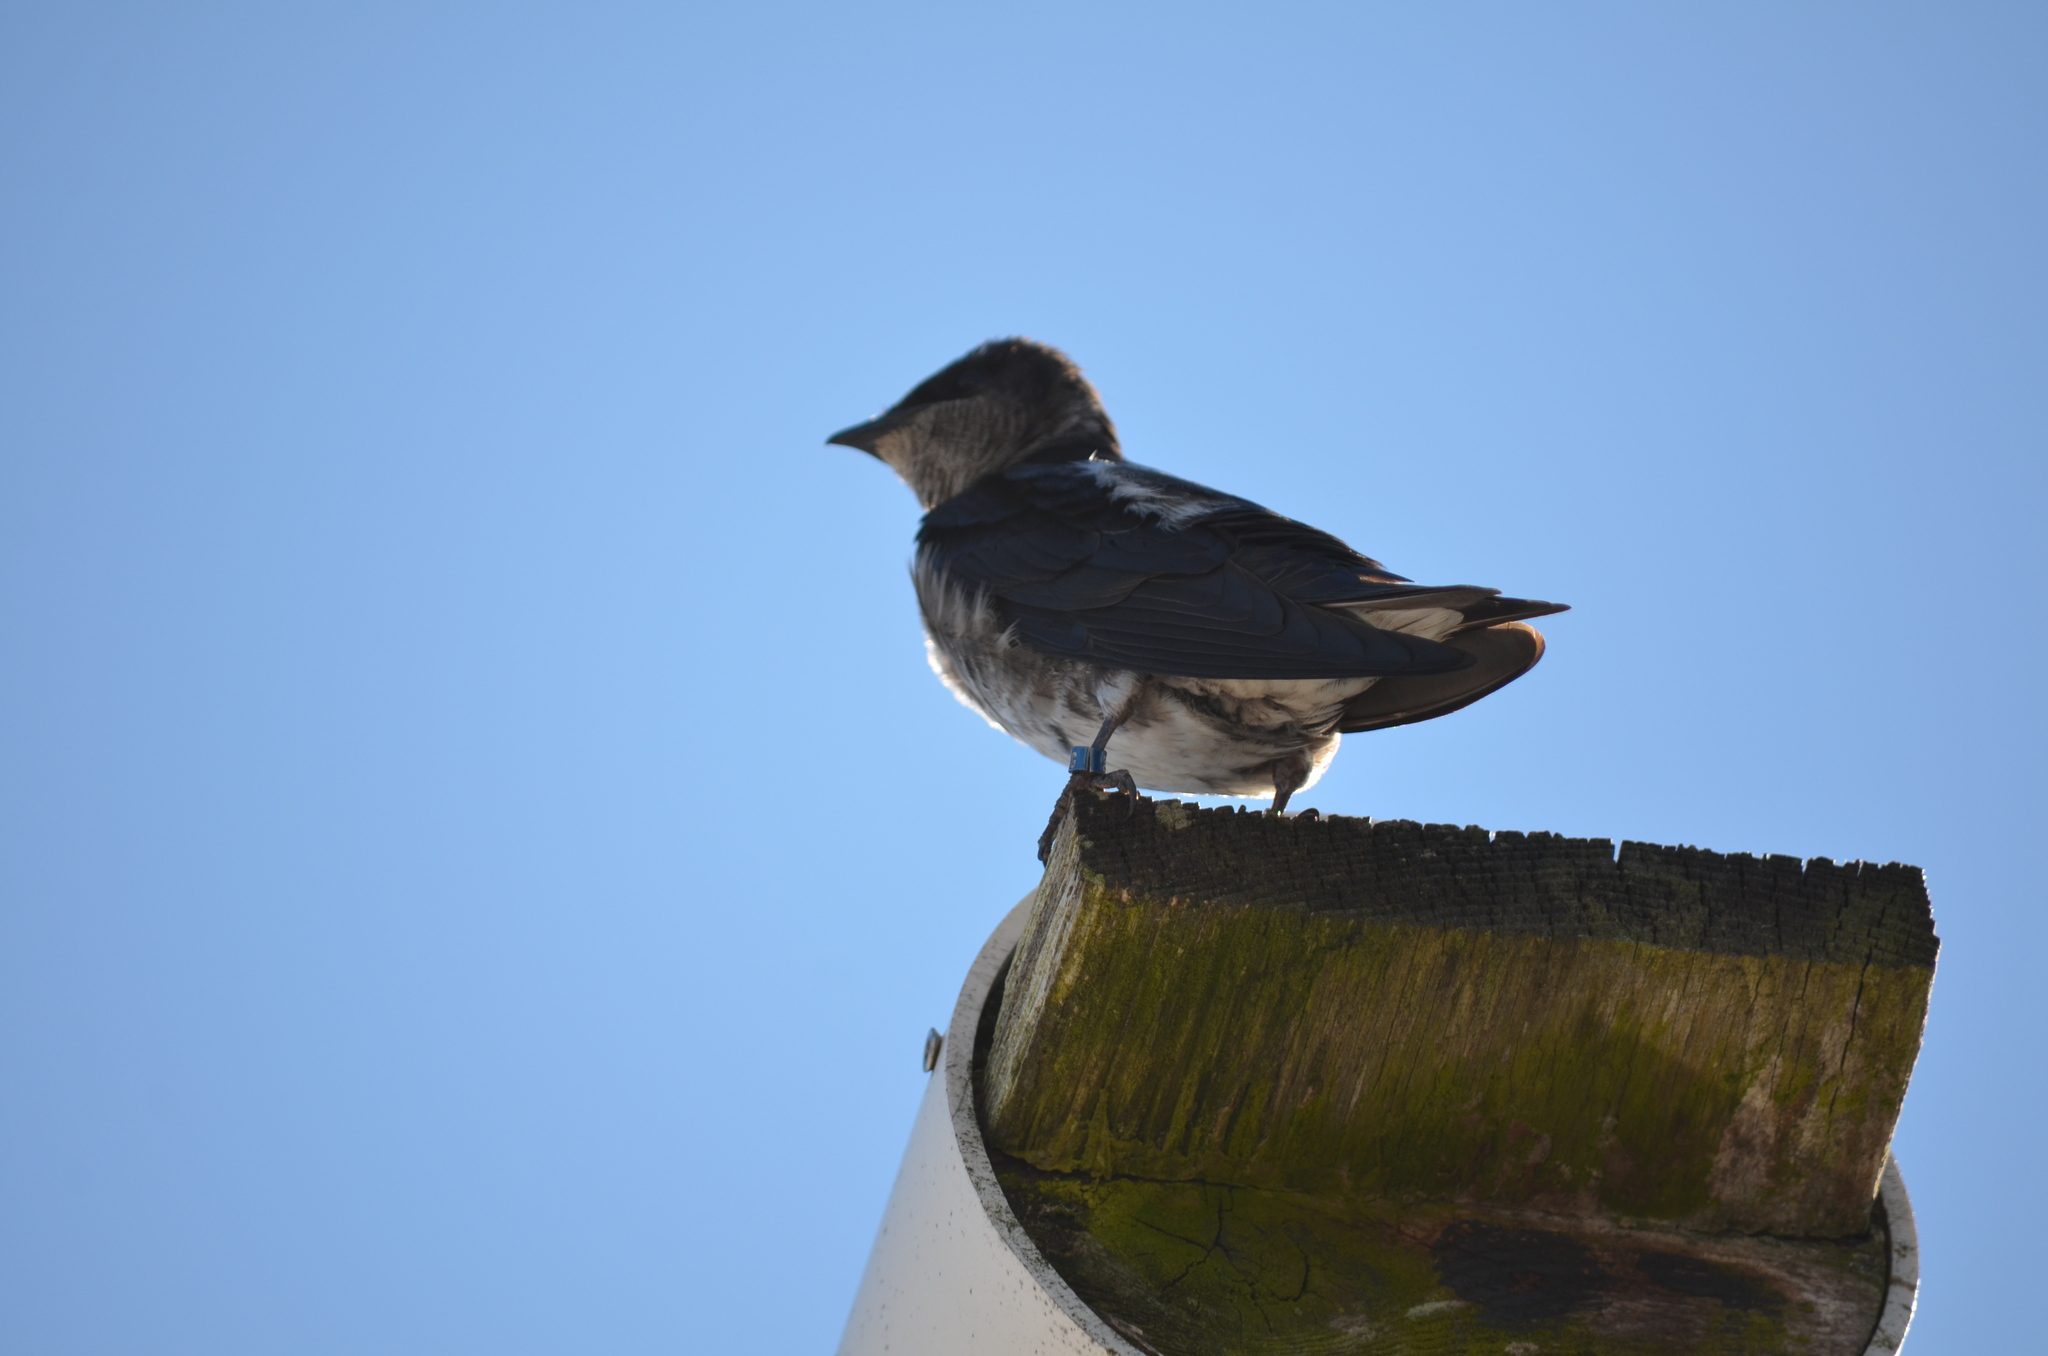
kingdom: Animalia
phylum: Chordata
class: Aves
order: Passeriformes
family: Hirundinidae
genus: Progne
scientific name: Progne subis
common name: Purple martin
